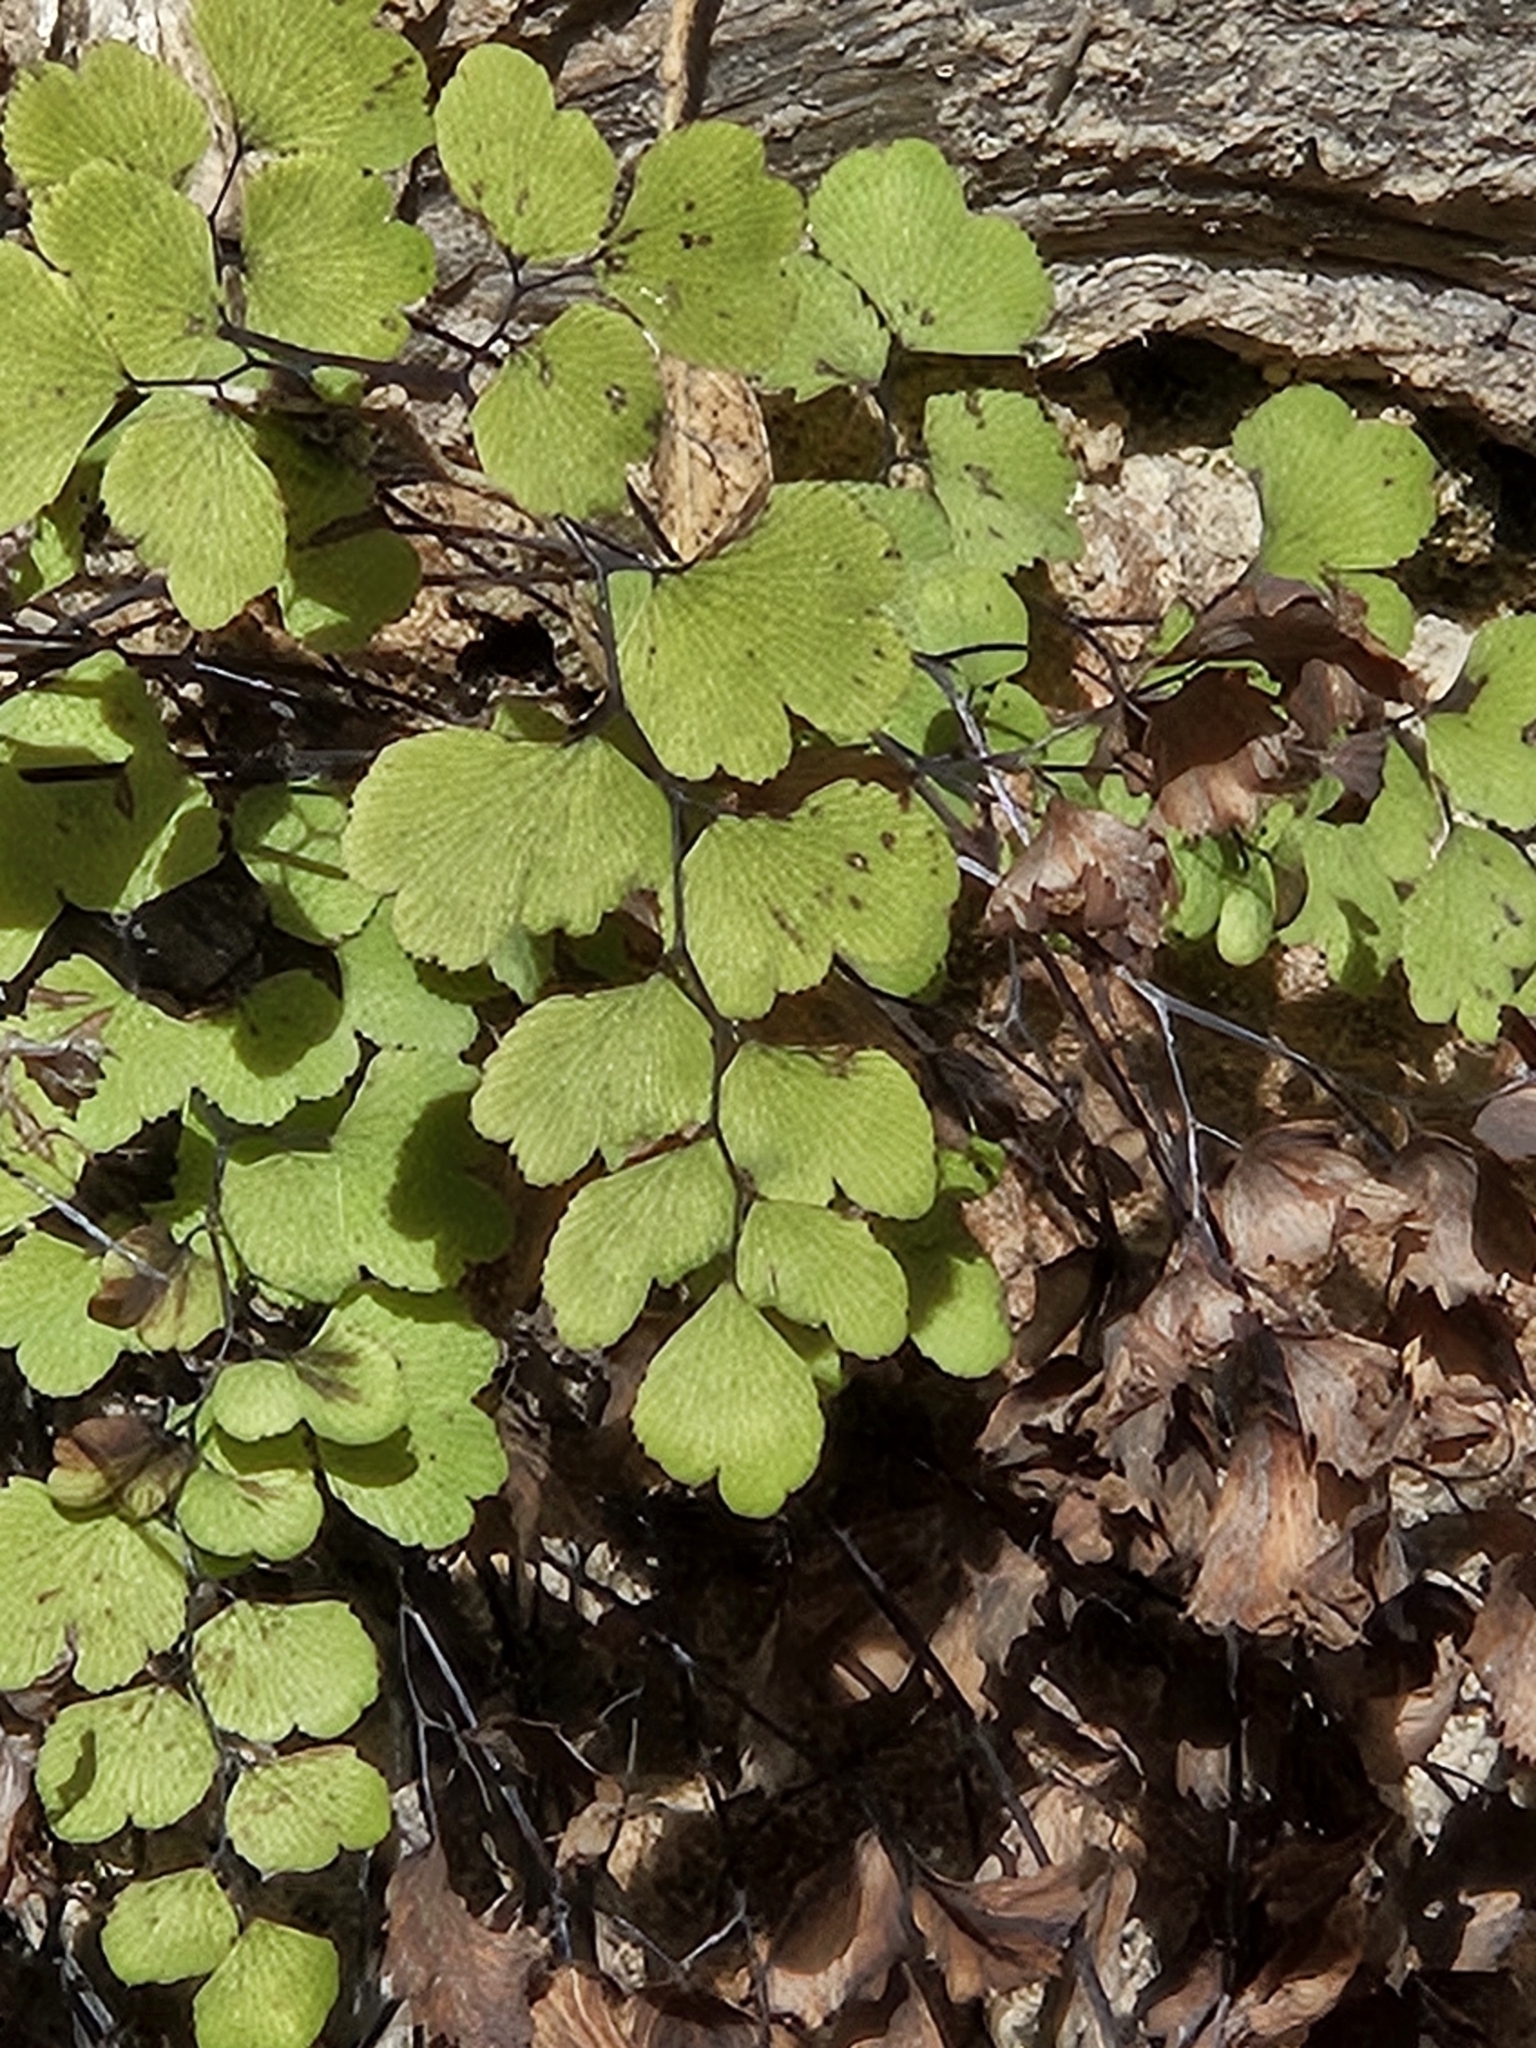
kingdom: Plantae
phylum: Tracheophyta
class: Polypodiopsida
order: Polypodiales
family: Pteridaceae
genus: Adiantum
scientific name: Adiantum capillus-veneris
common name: Maidenhair fern
